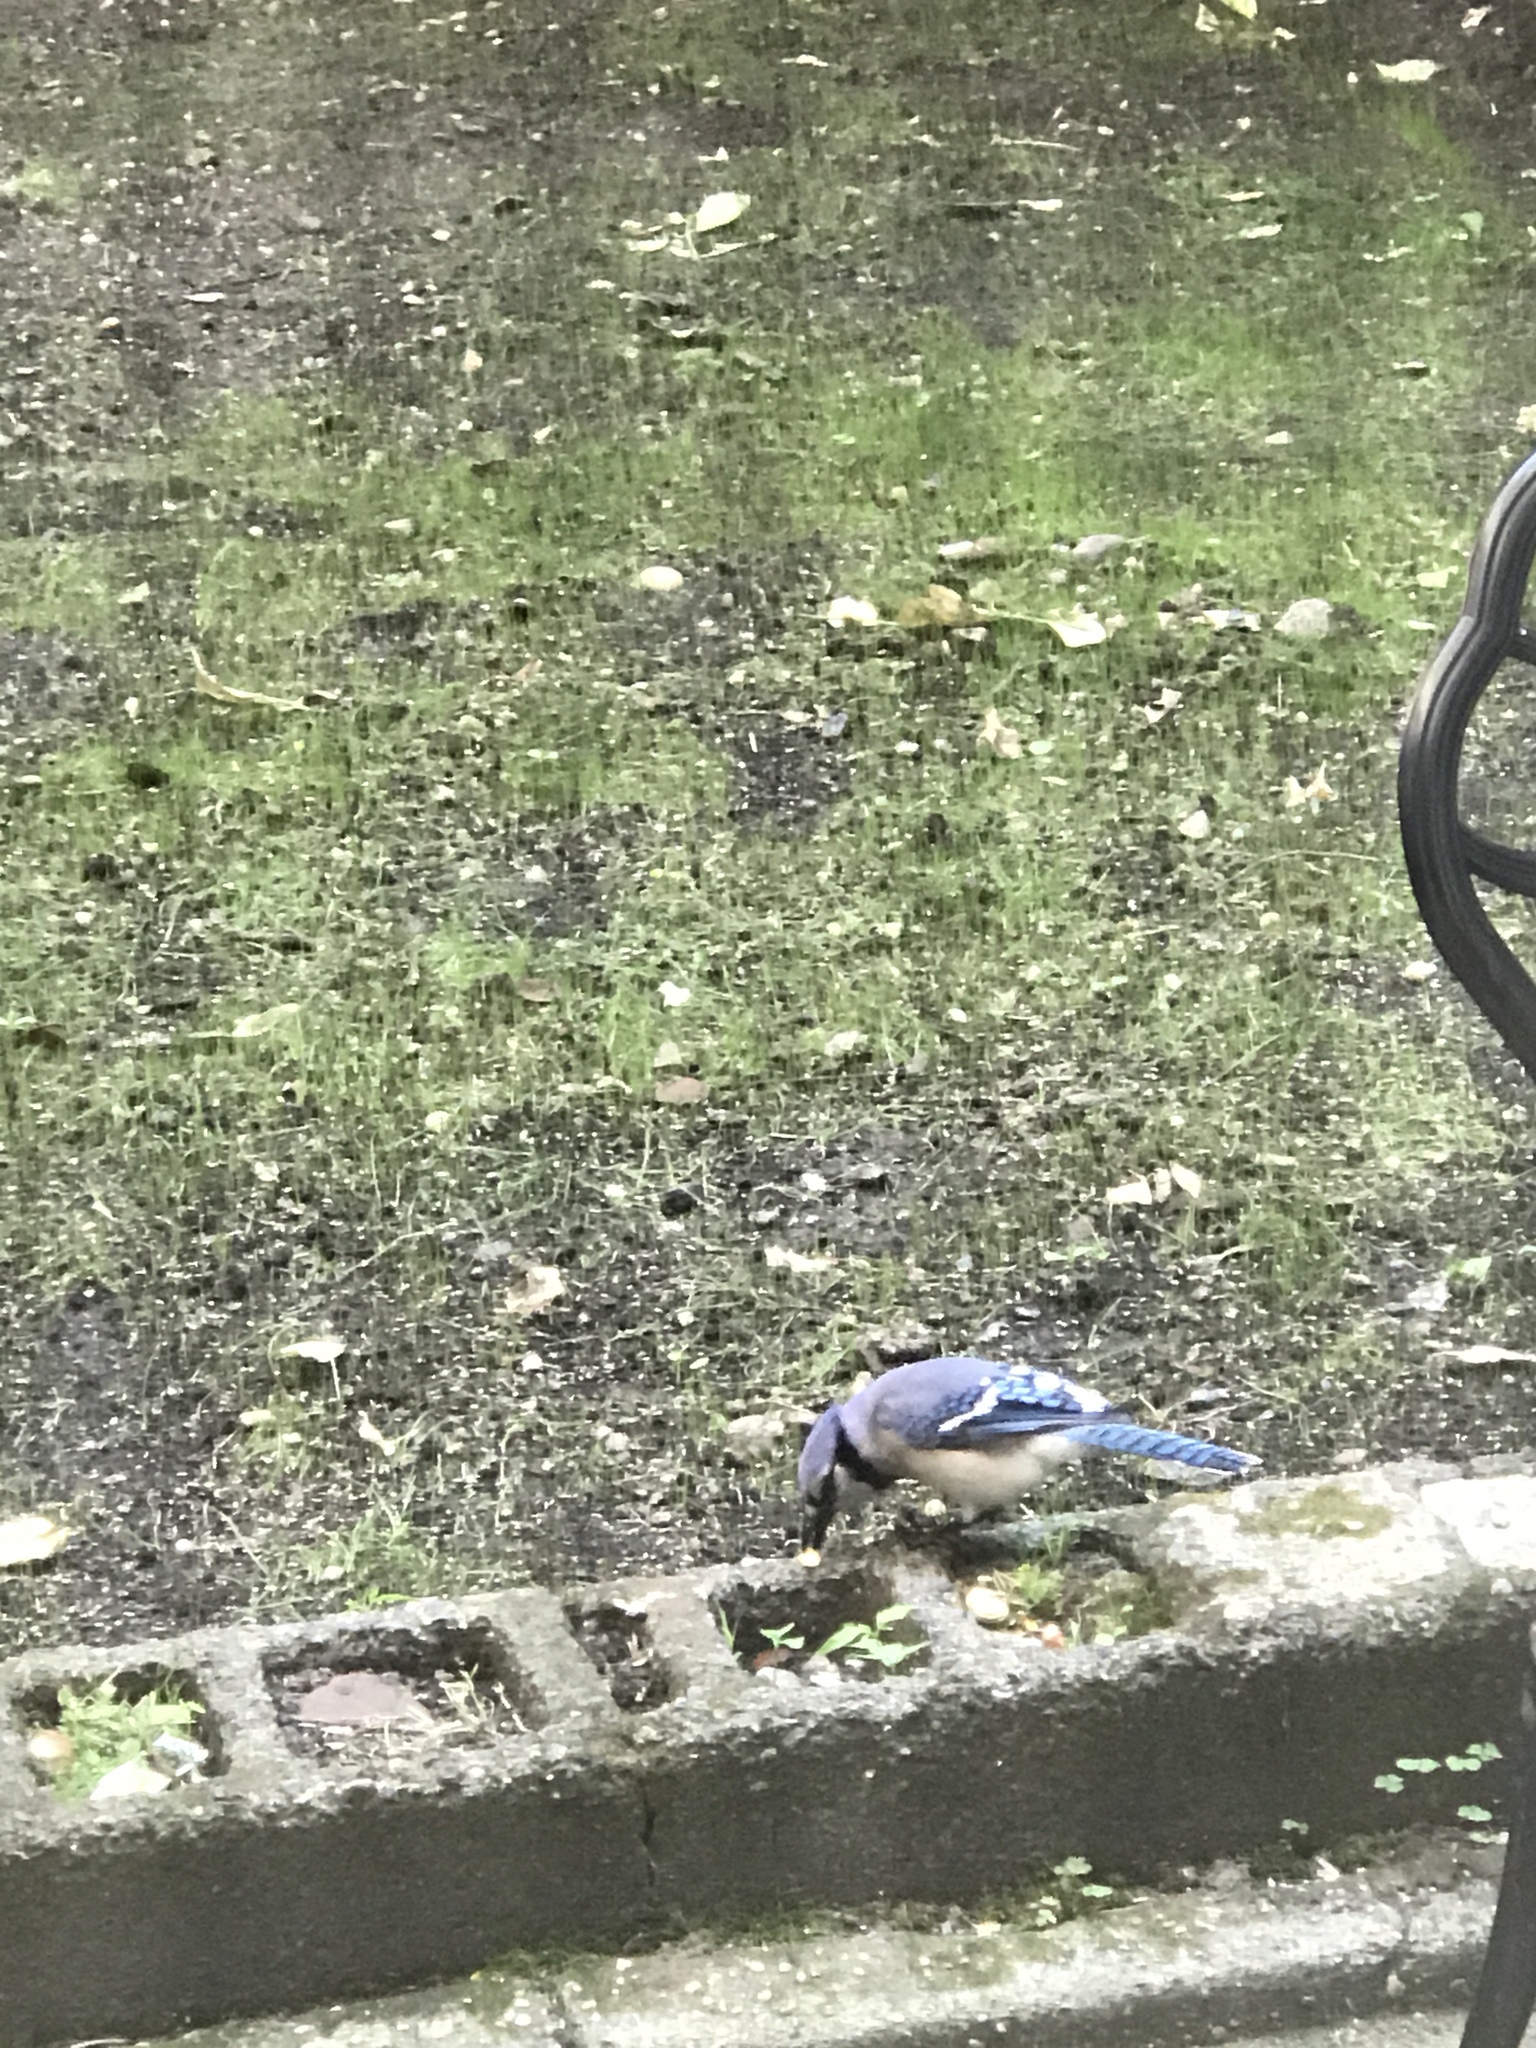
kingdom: Animalia
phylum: Chordata
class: Aves
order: Passeriformes
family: Corvidae
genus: Cyanocitta
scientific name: Cyanocitta cristata
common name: Blue jay
